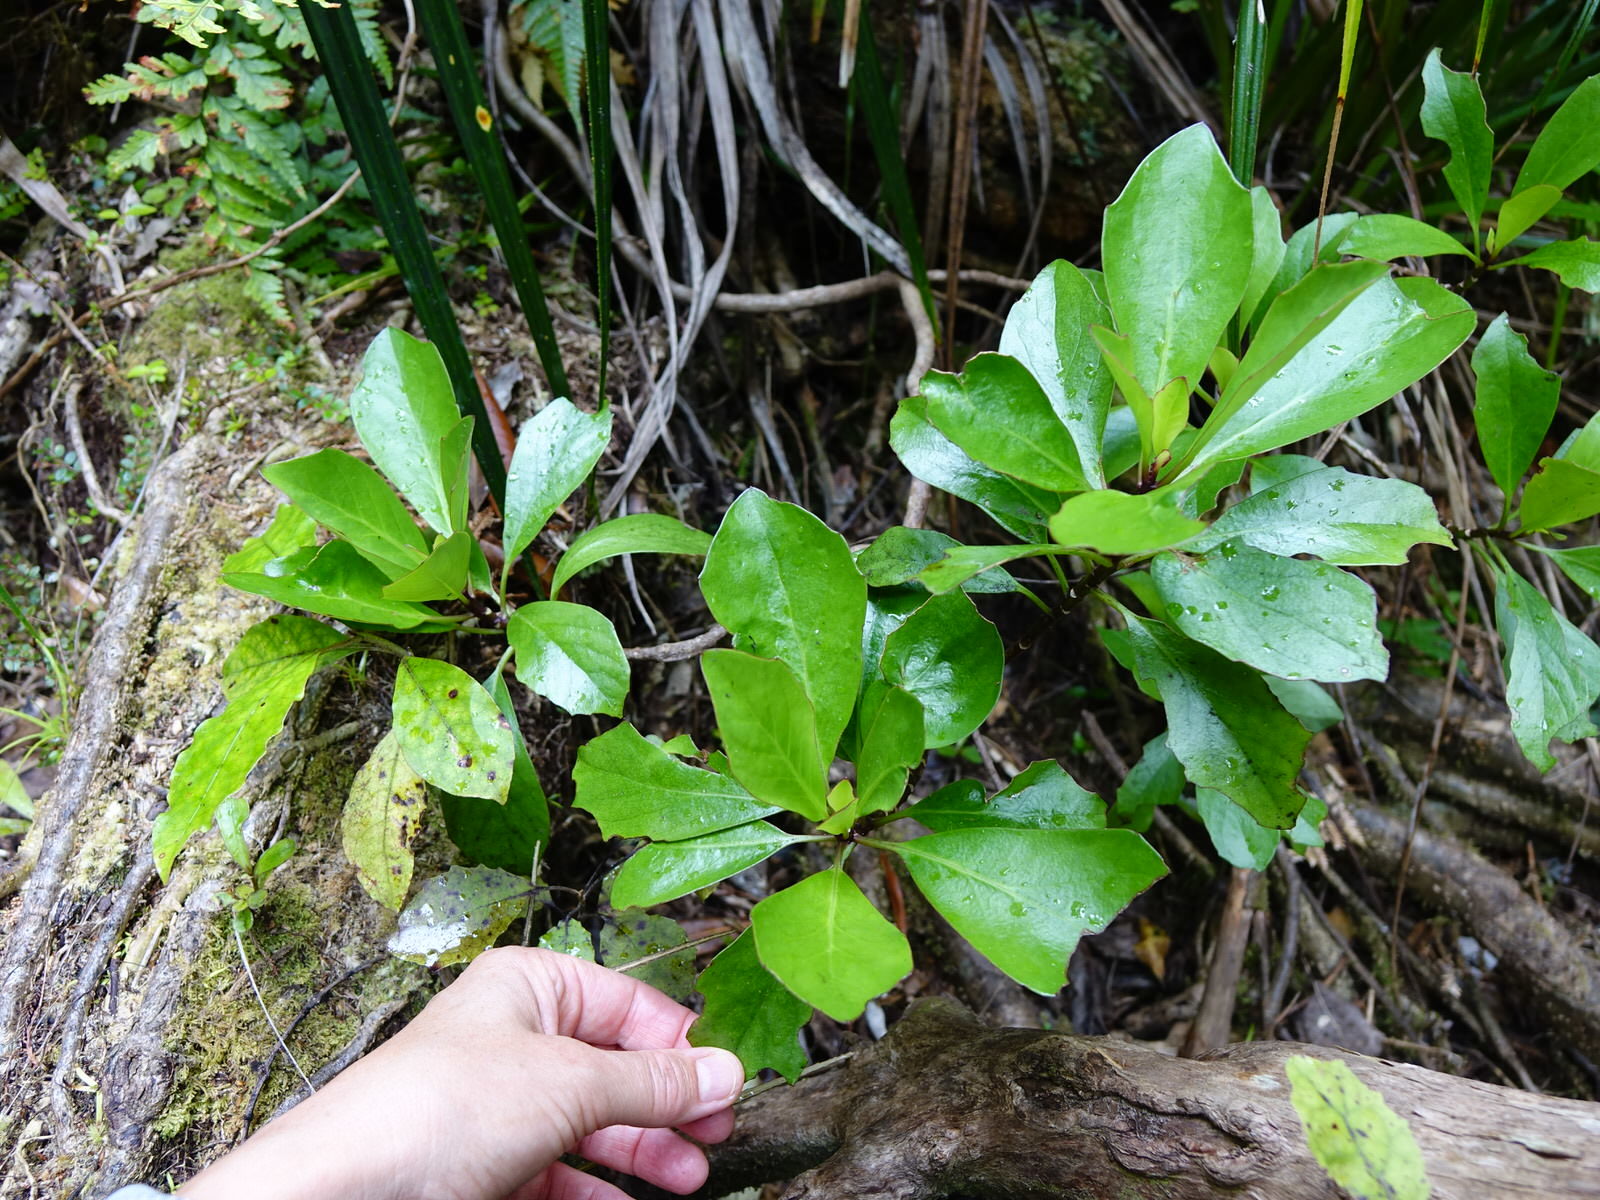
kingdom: Plantae
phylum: Tracheophyta
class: Magnoliopsida
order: Asterales
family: Asteraceae
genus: Brachyglottis
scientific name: Brachyglottis kirkii
